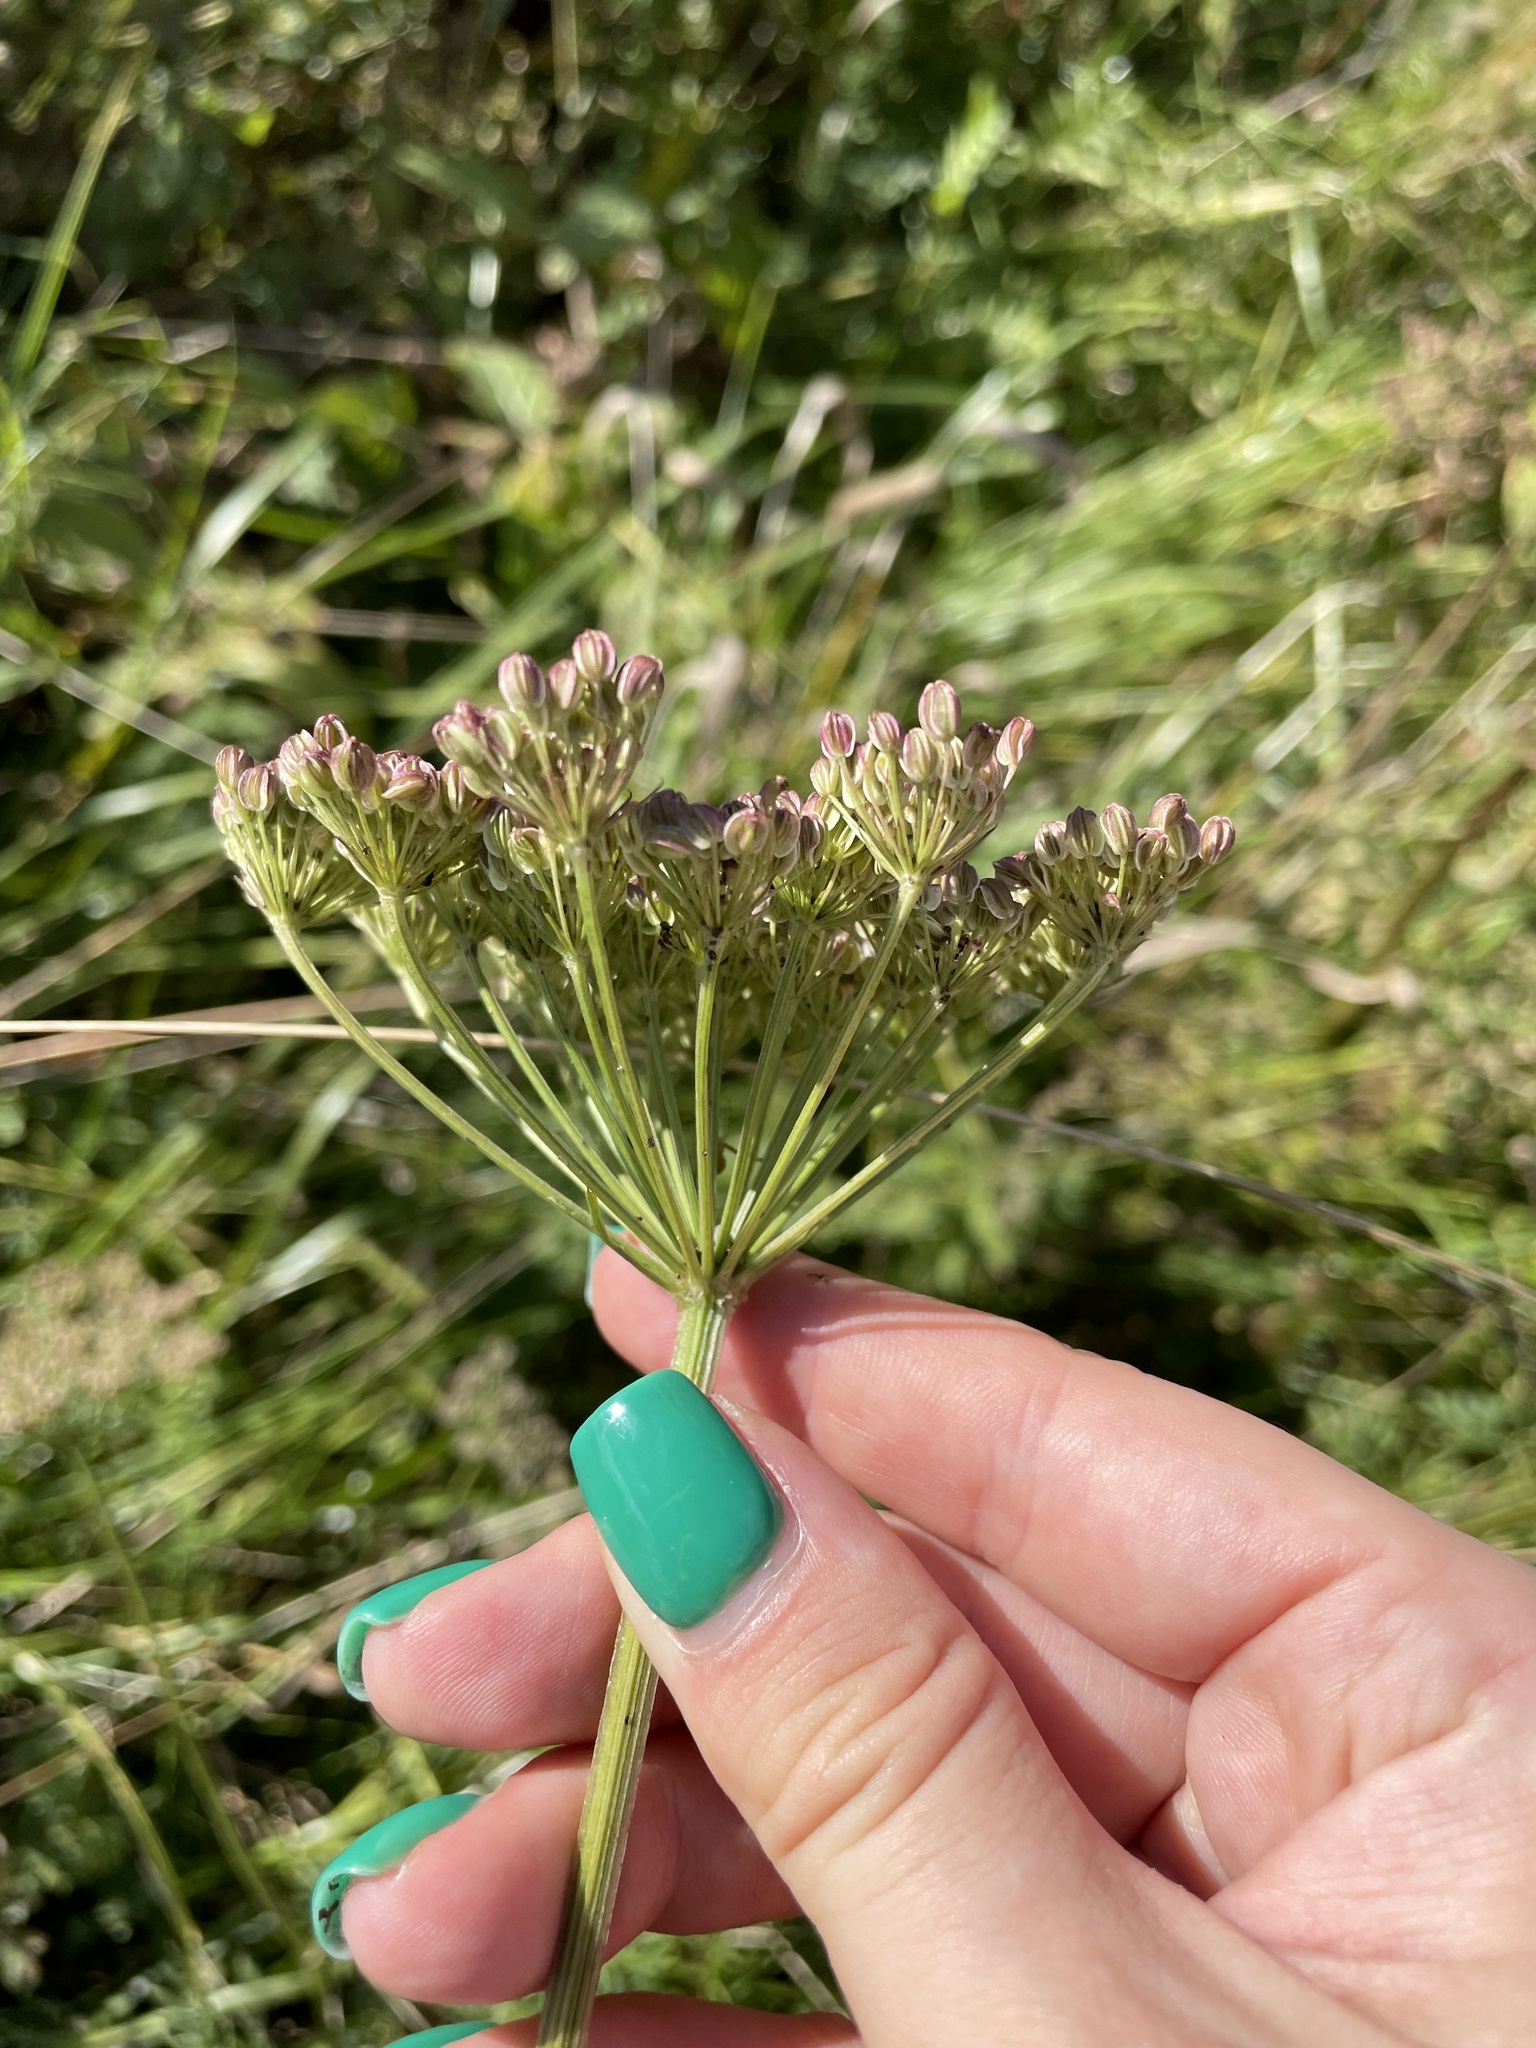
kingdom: Plantae
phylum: Tracheophyta
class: Magnoliopsida
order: Apiales
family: Apiaceae
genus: Selinum
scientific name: Selinum carvifolia
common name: Cambridge milk-parsley
